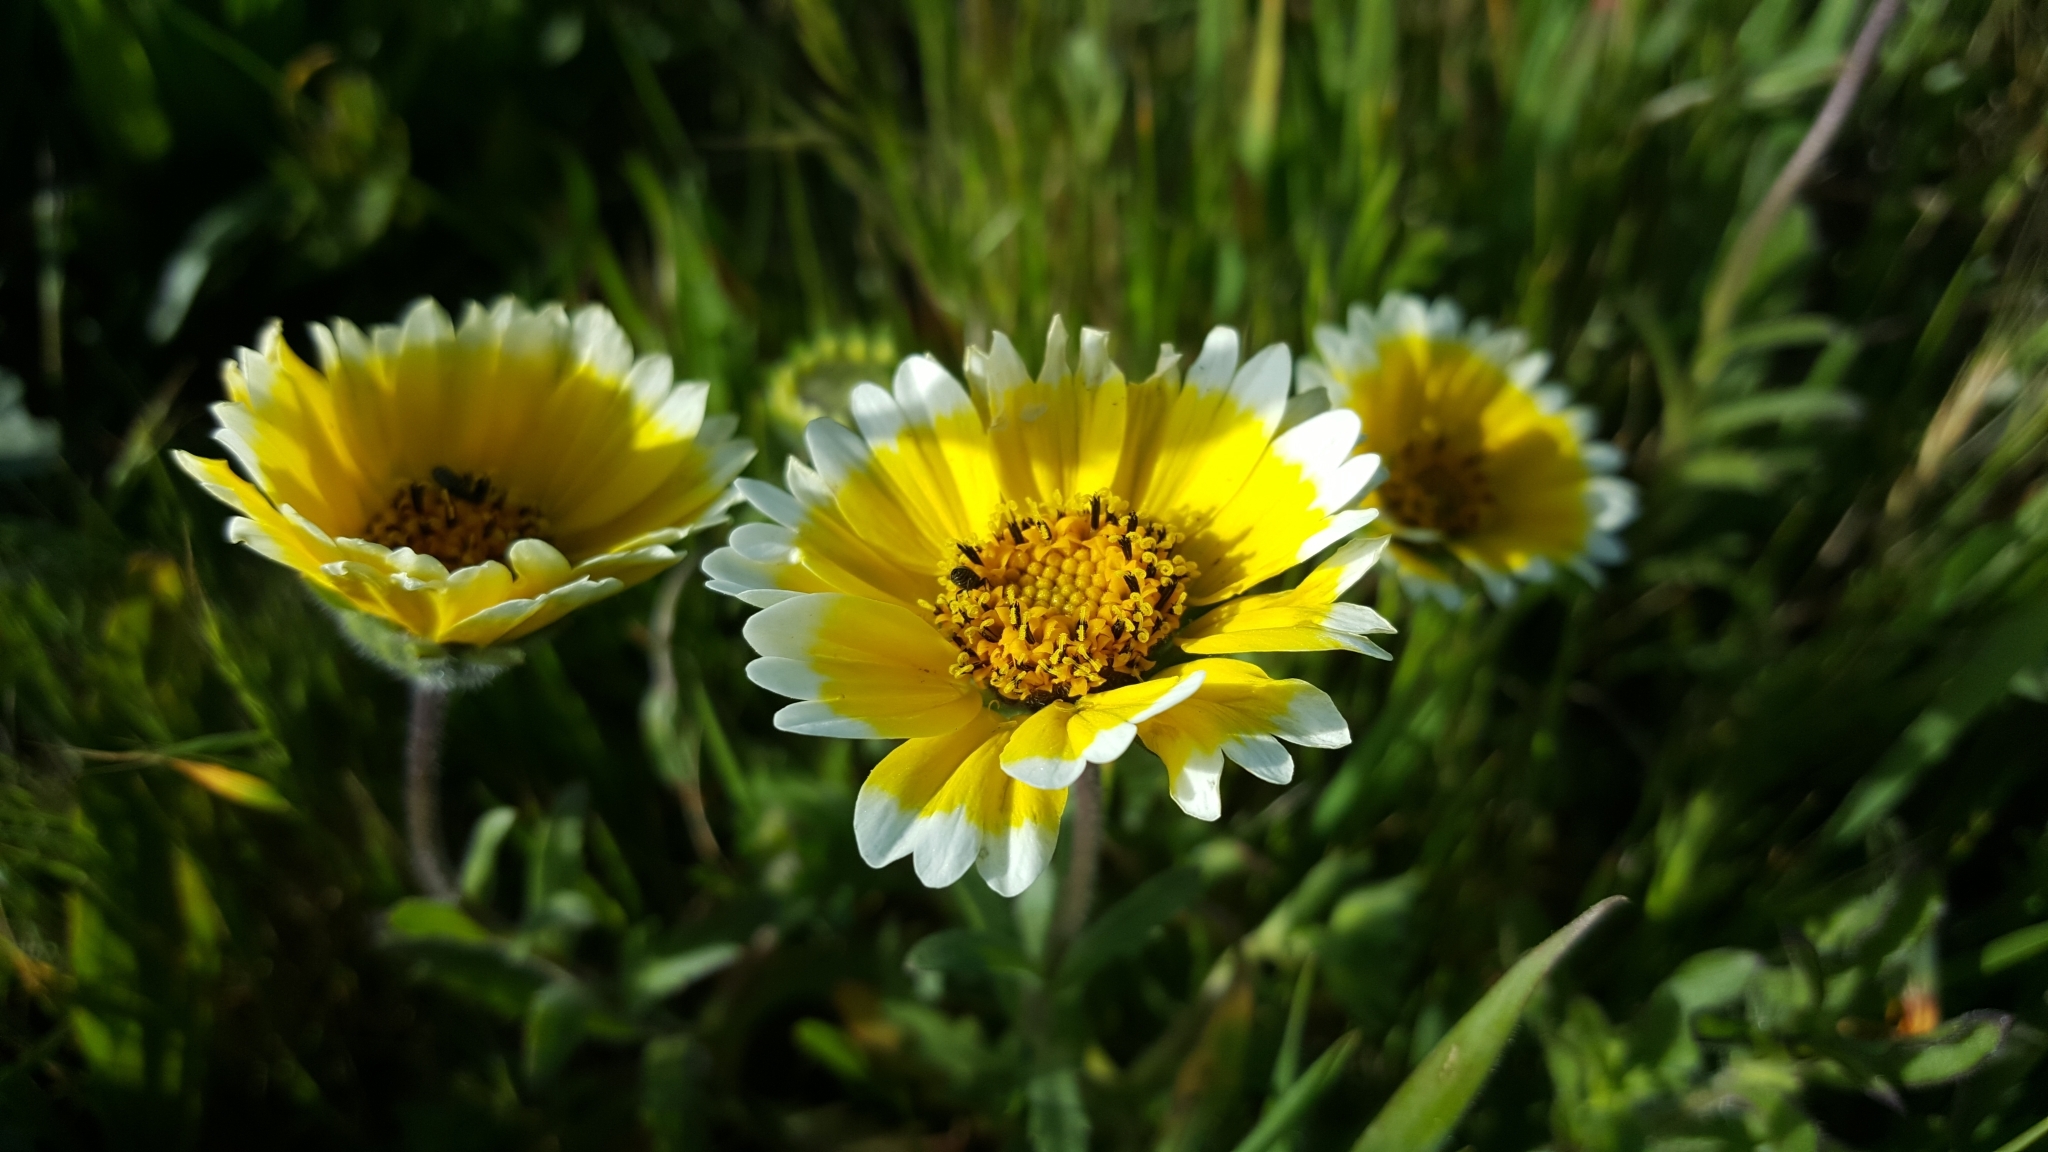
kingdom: Plantae
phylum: Tracheophyta
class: Magnoliopsida
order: Asterales
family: Asteraceae
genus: Layia
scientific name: Layia platyglossa
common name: Tidy-tips
